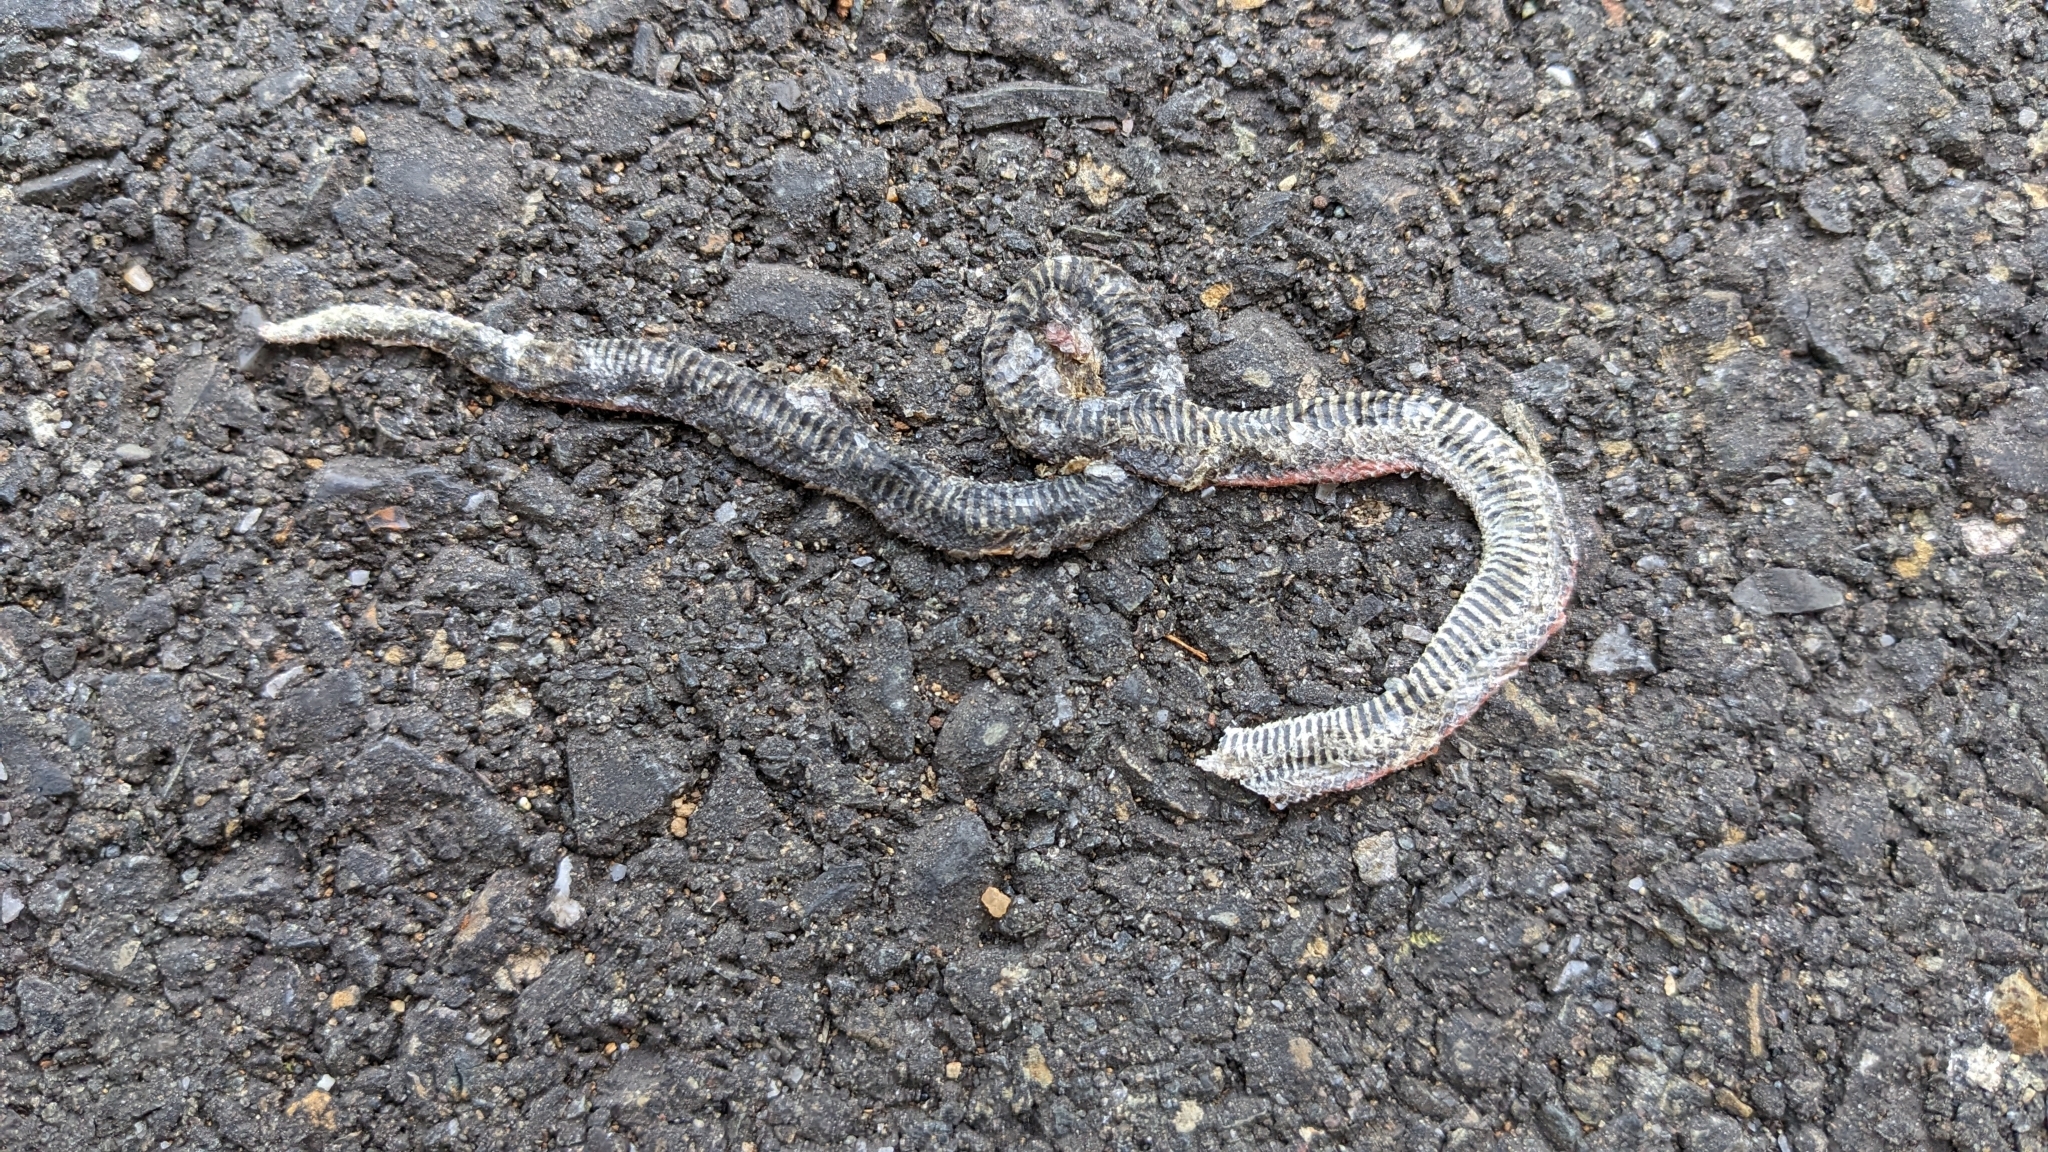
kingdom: Animalia
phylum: Chordata
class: Squamata
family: Colubridae
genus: Contia
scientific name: Contia tenuis
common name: Sharptail snake
